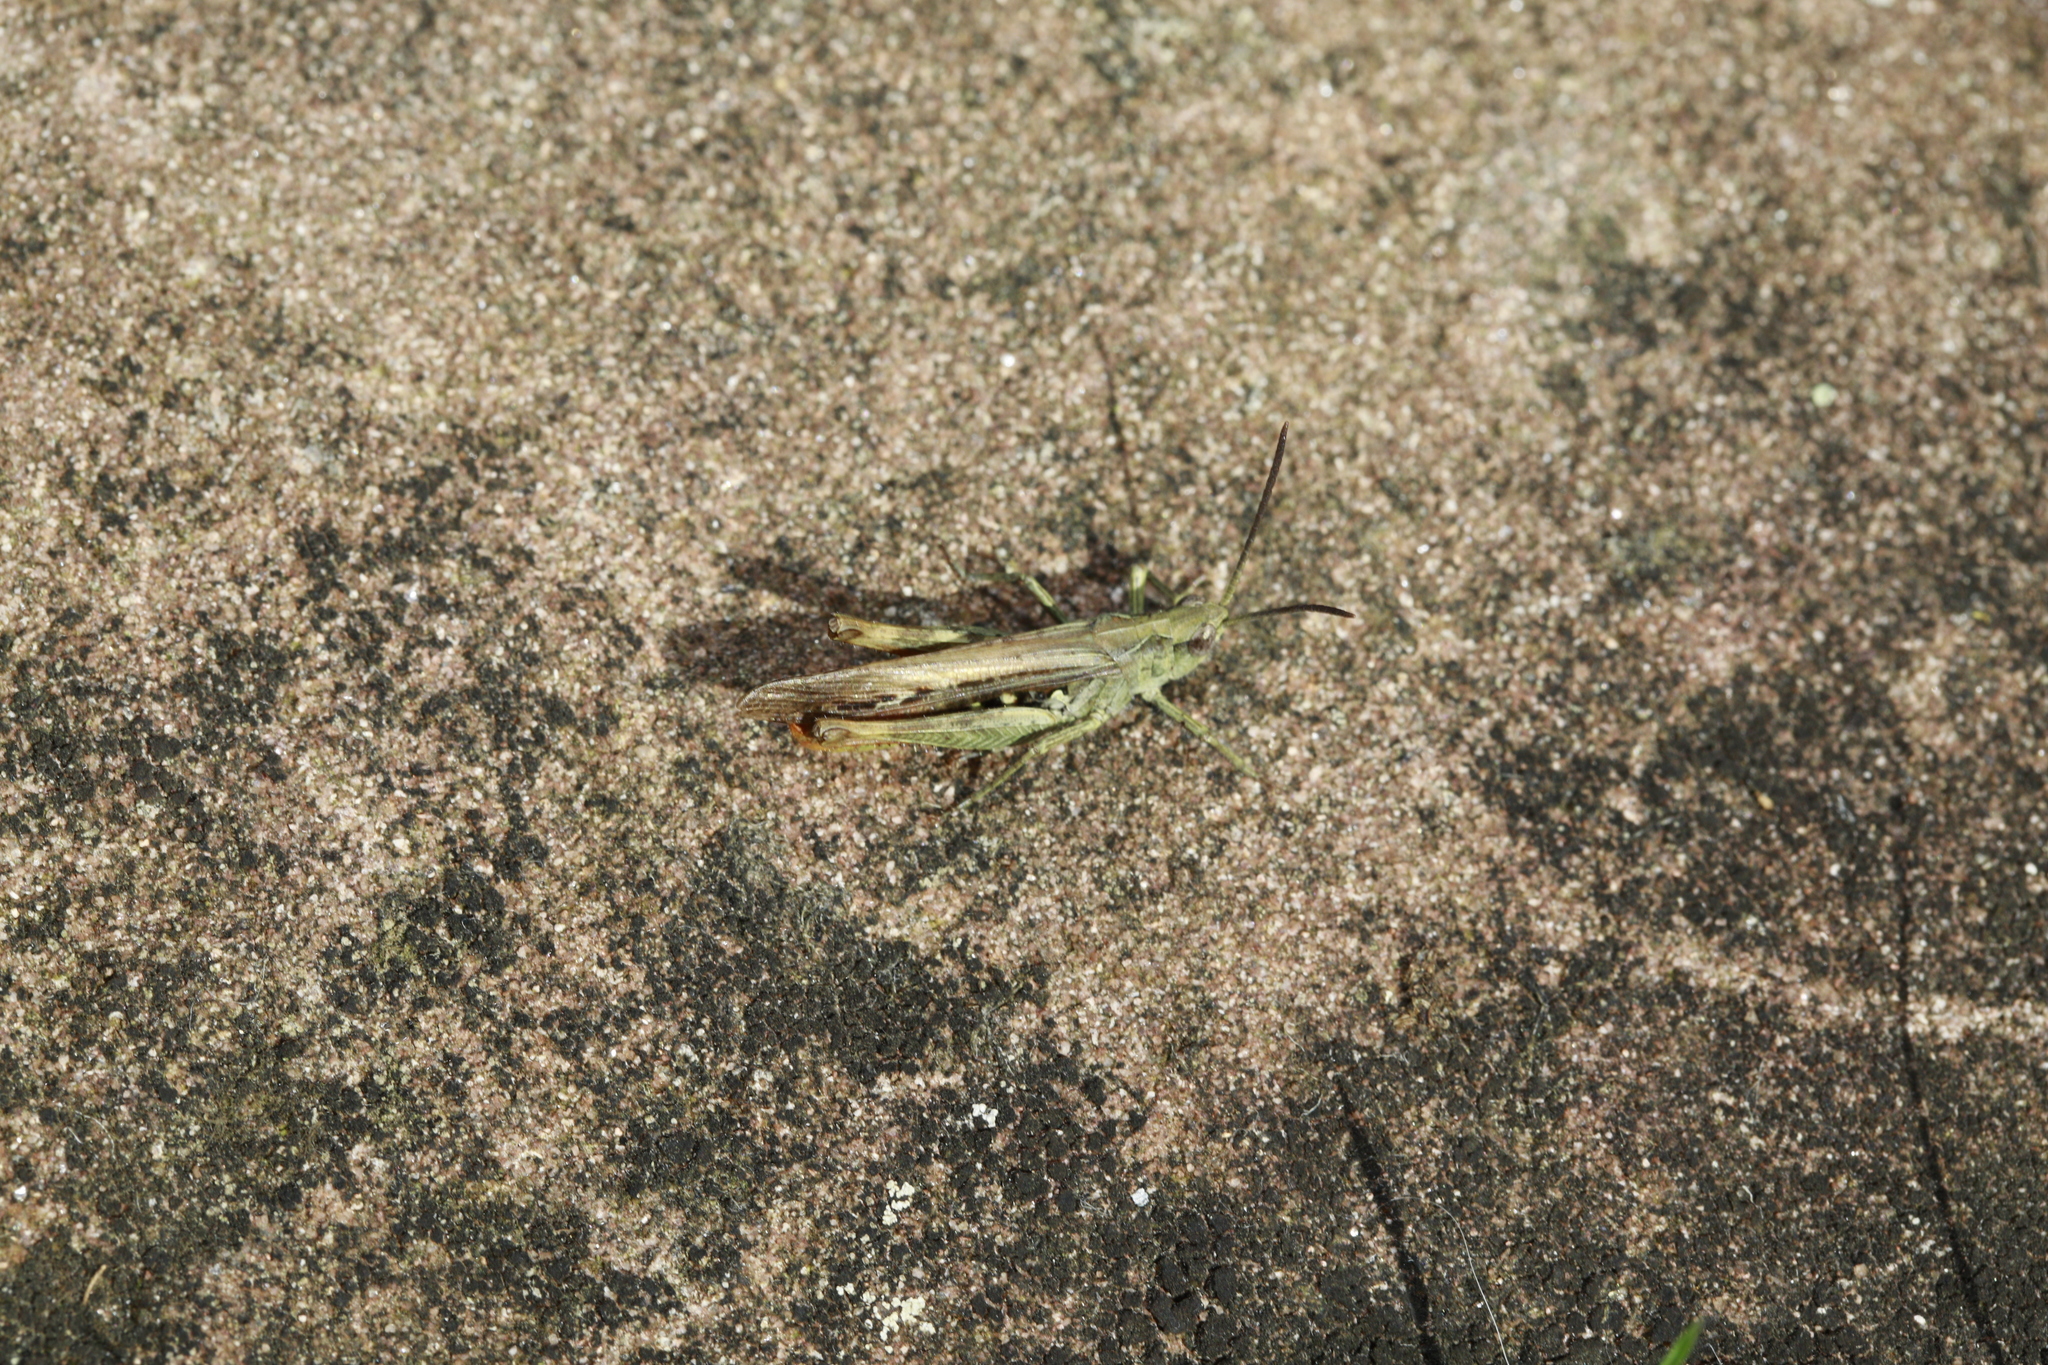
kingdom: Animalia
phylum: Arthropoda
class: Insecta
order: Orthoptera
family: Acrididae
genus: Chorthippus
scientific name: Chorthippus brunneus
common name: Field grasshopper
